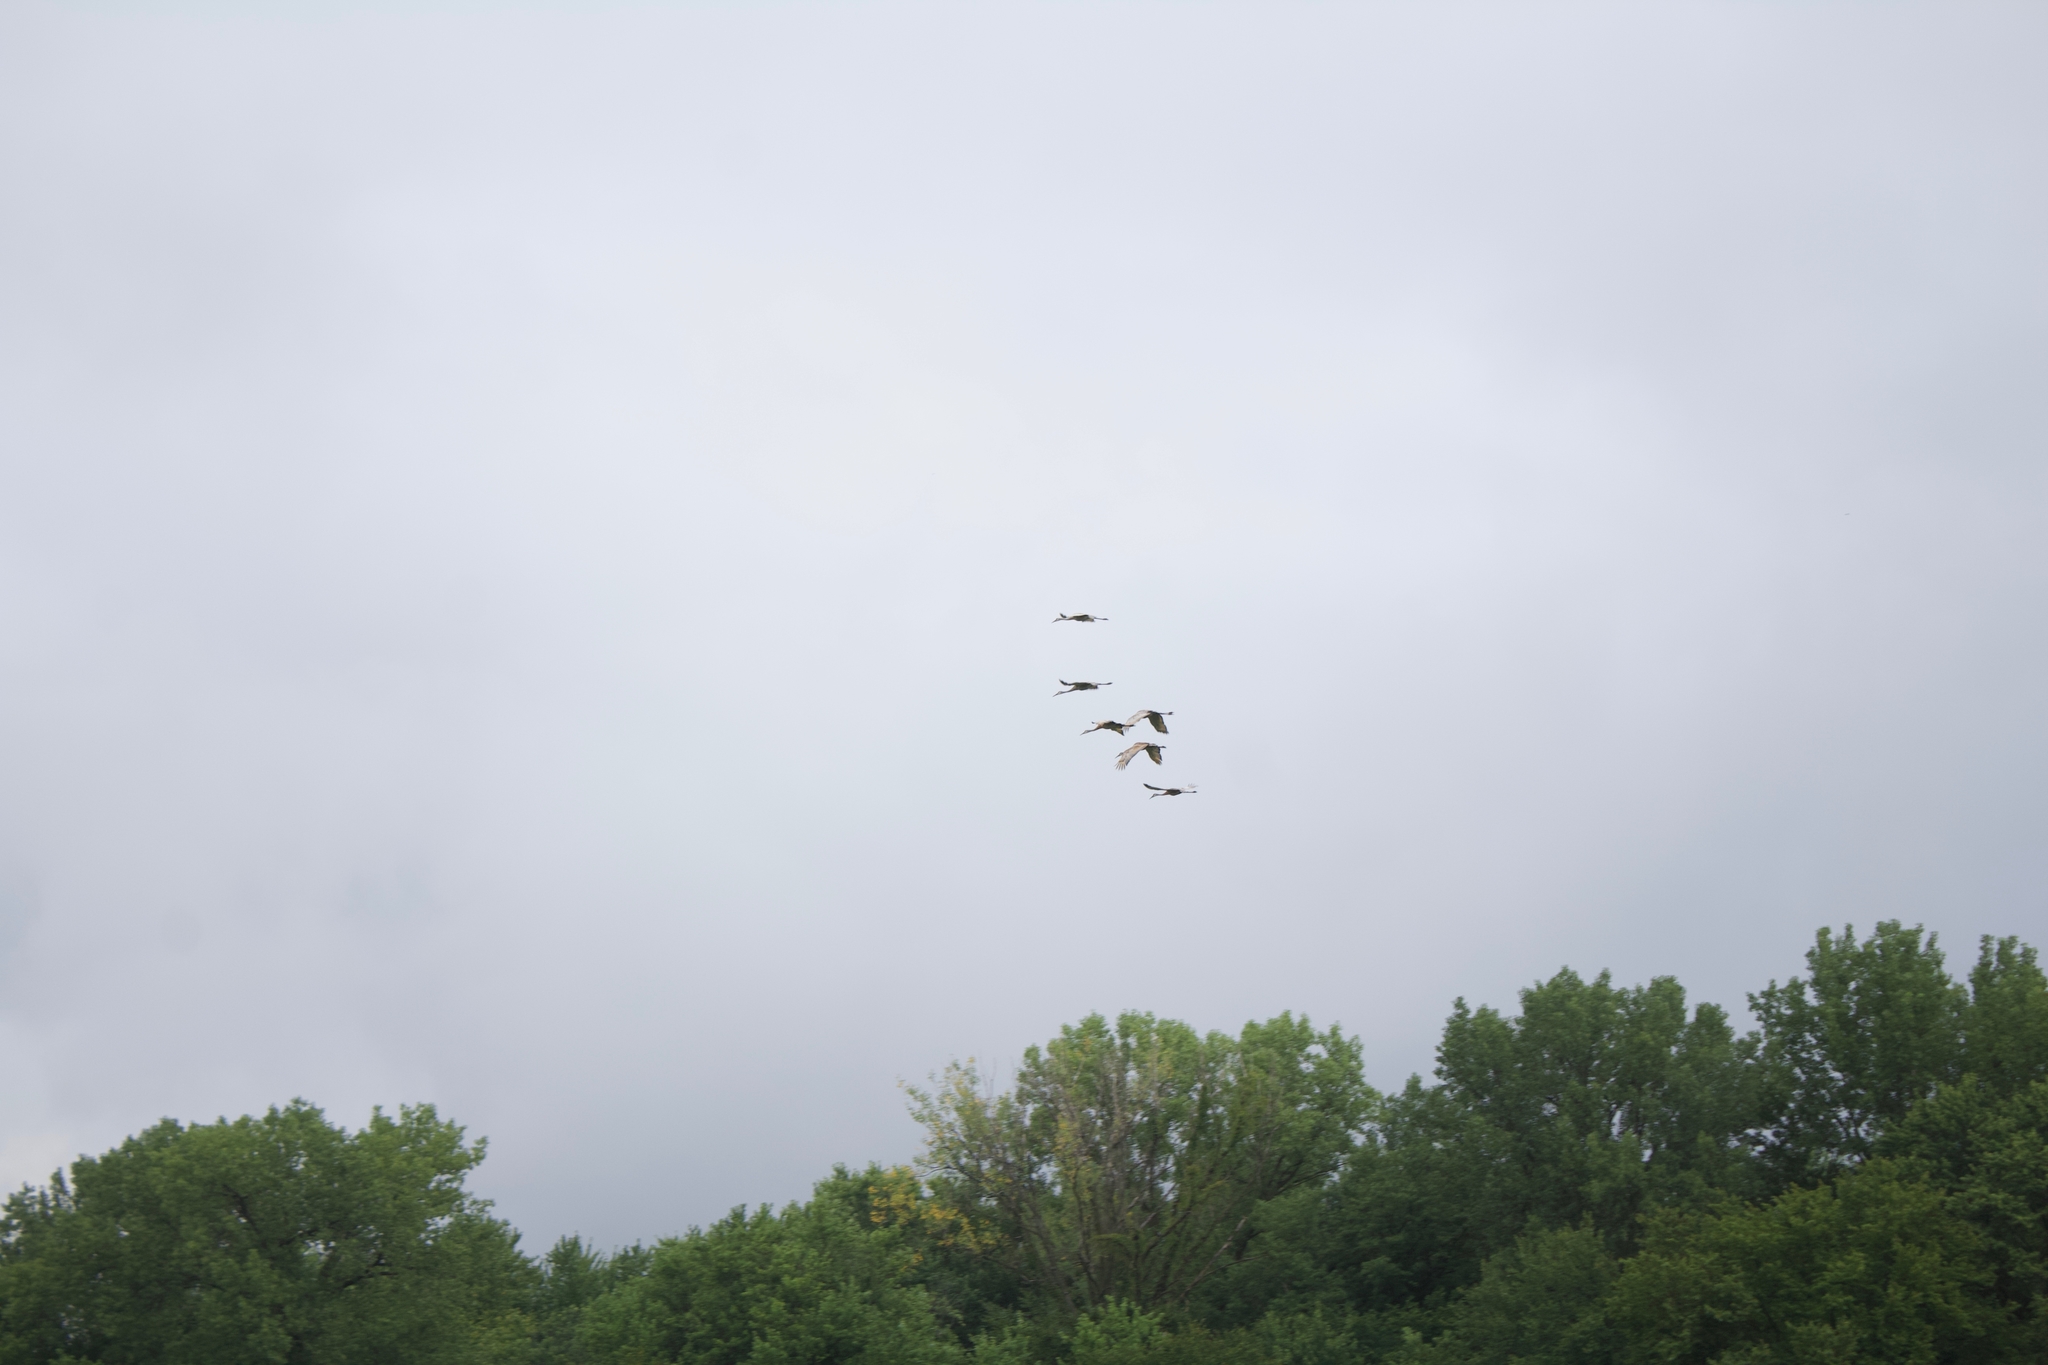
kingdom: Animalia
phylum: Chordata
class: Aves
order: Gruiformes
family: Gruidae
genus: Grus
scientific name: Grus canadensis
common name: Sandhill crane
